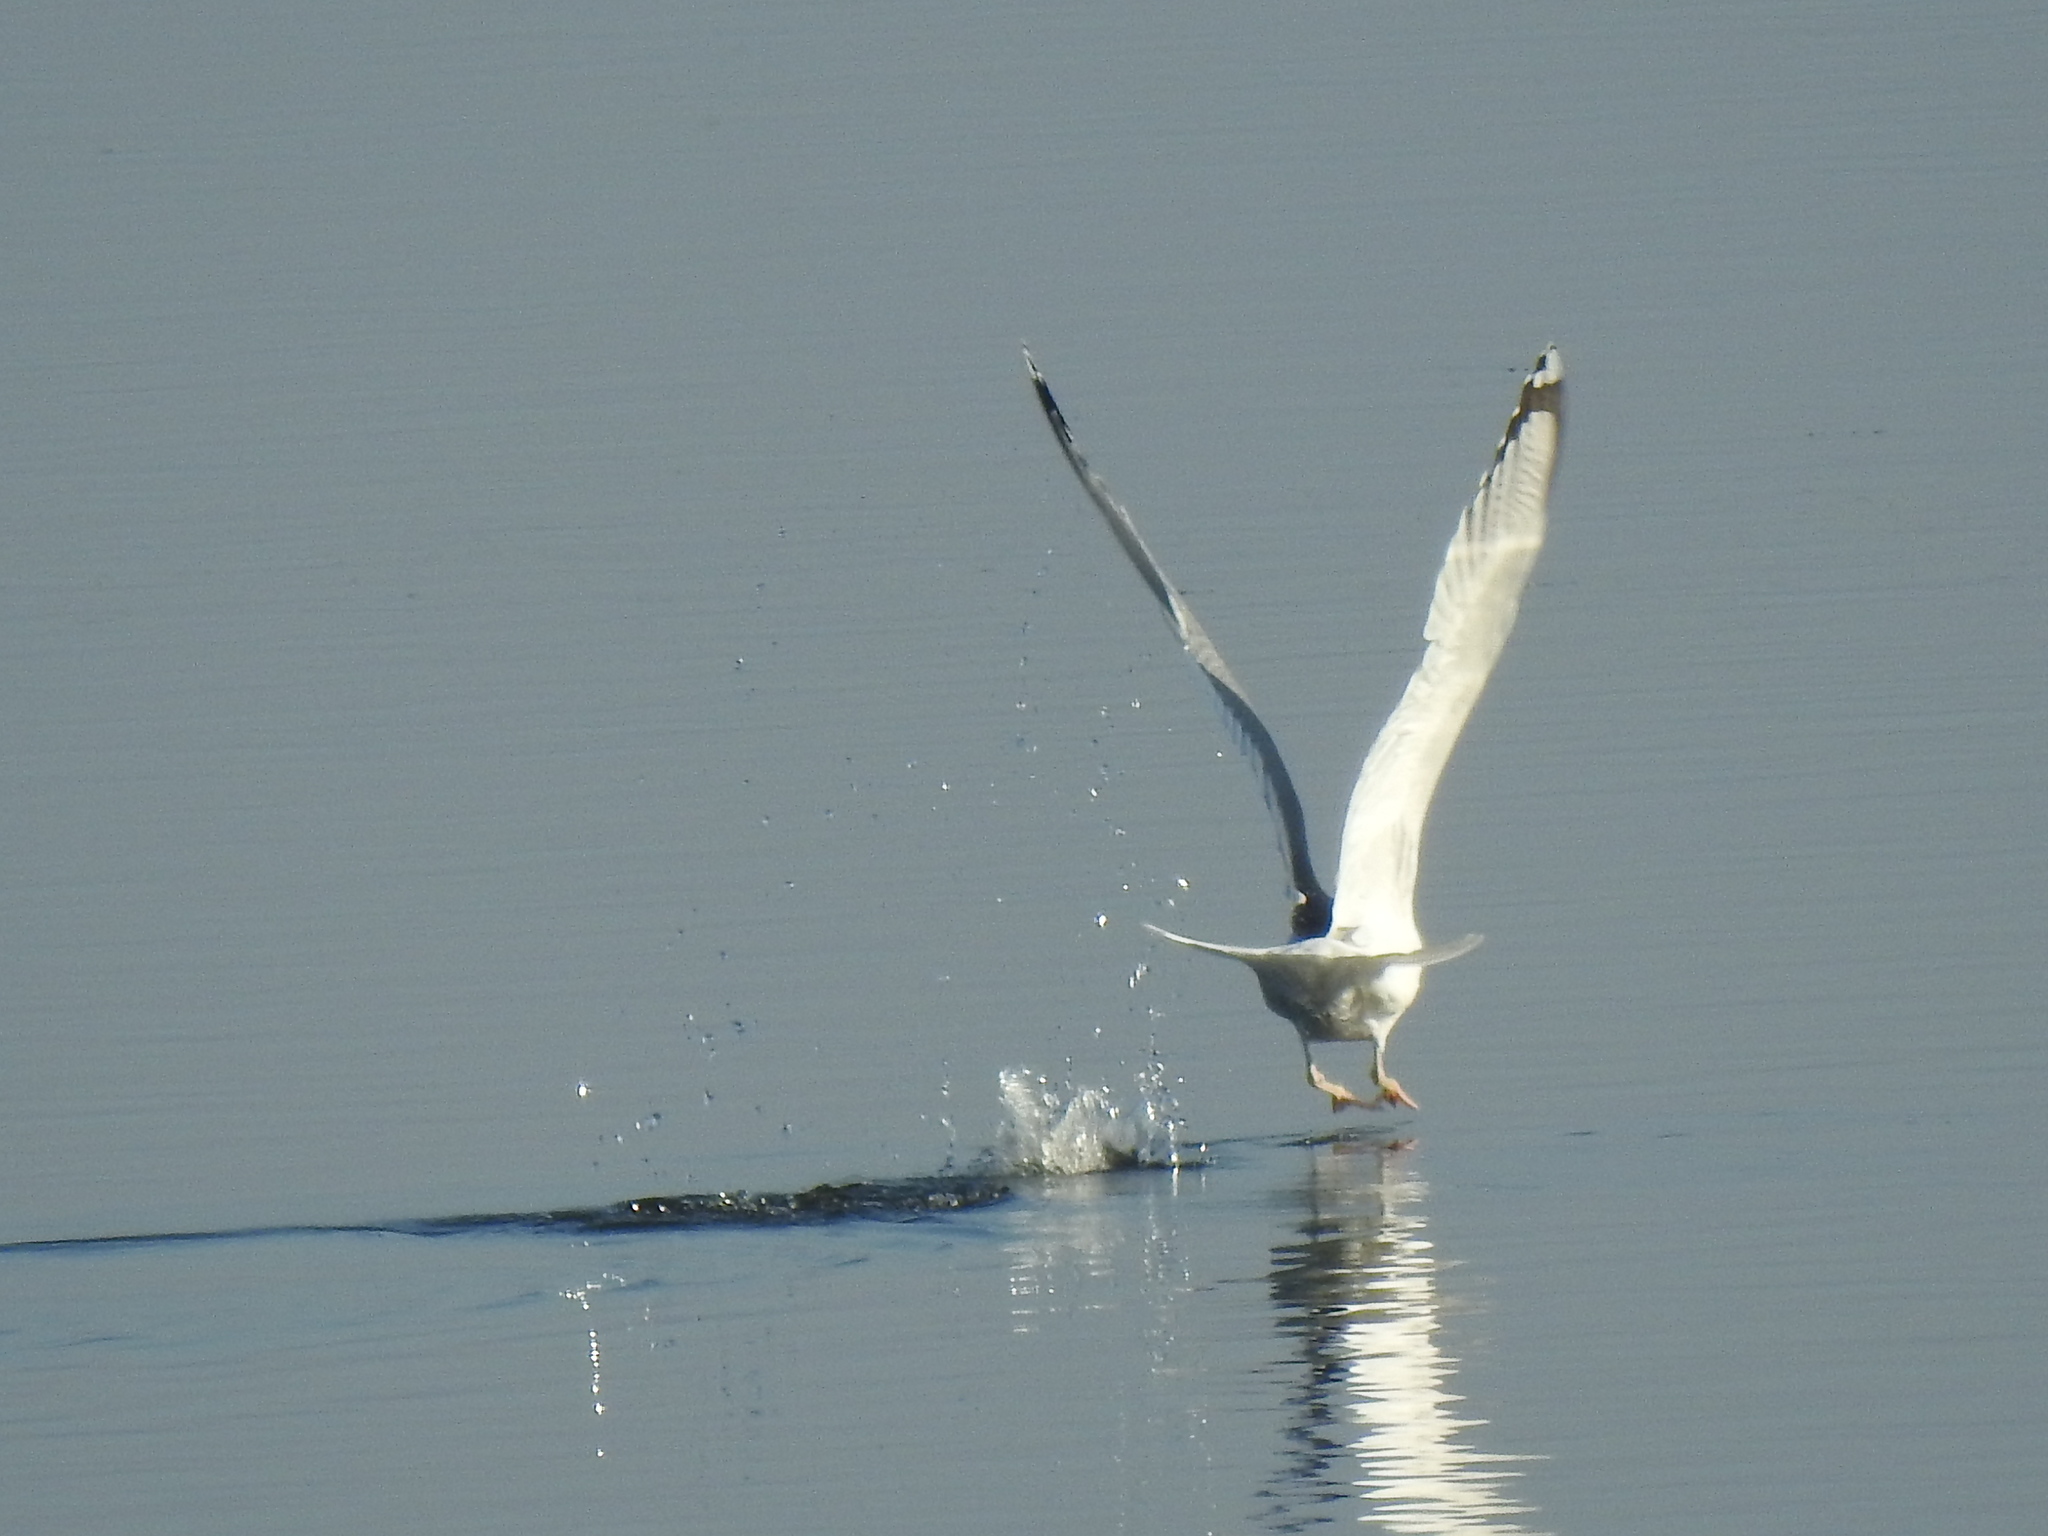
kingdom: Animalia
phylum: Chordata
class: Aves
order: Charadriiformes
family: Laridae
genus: Larus
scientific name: Larus cachinnans
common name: Caspian gull
